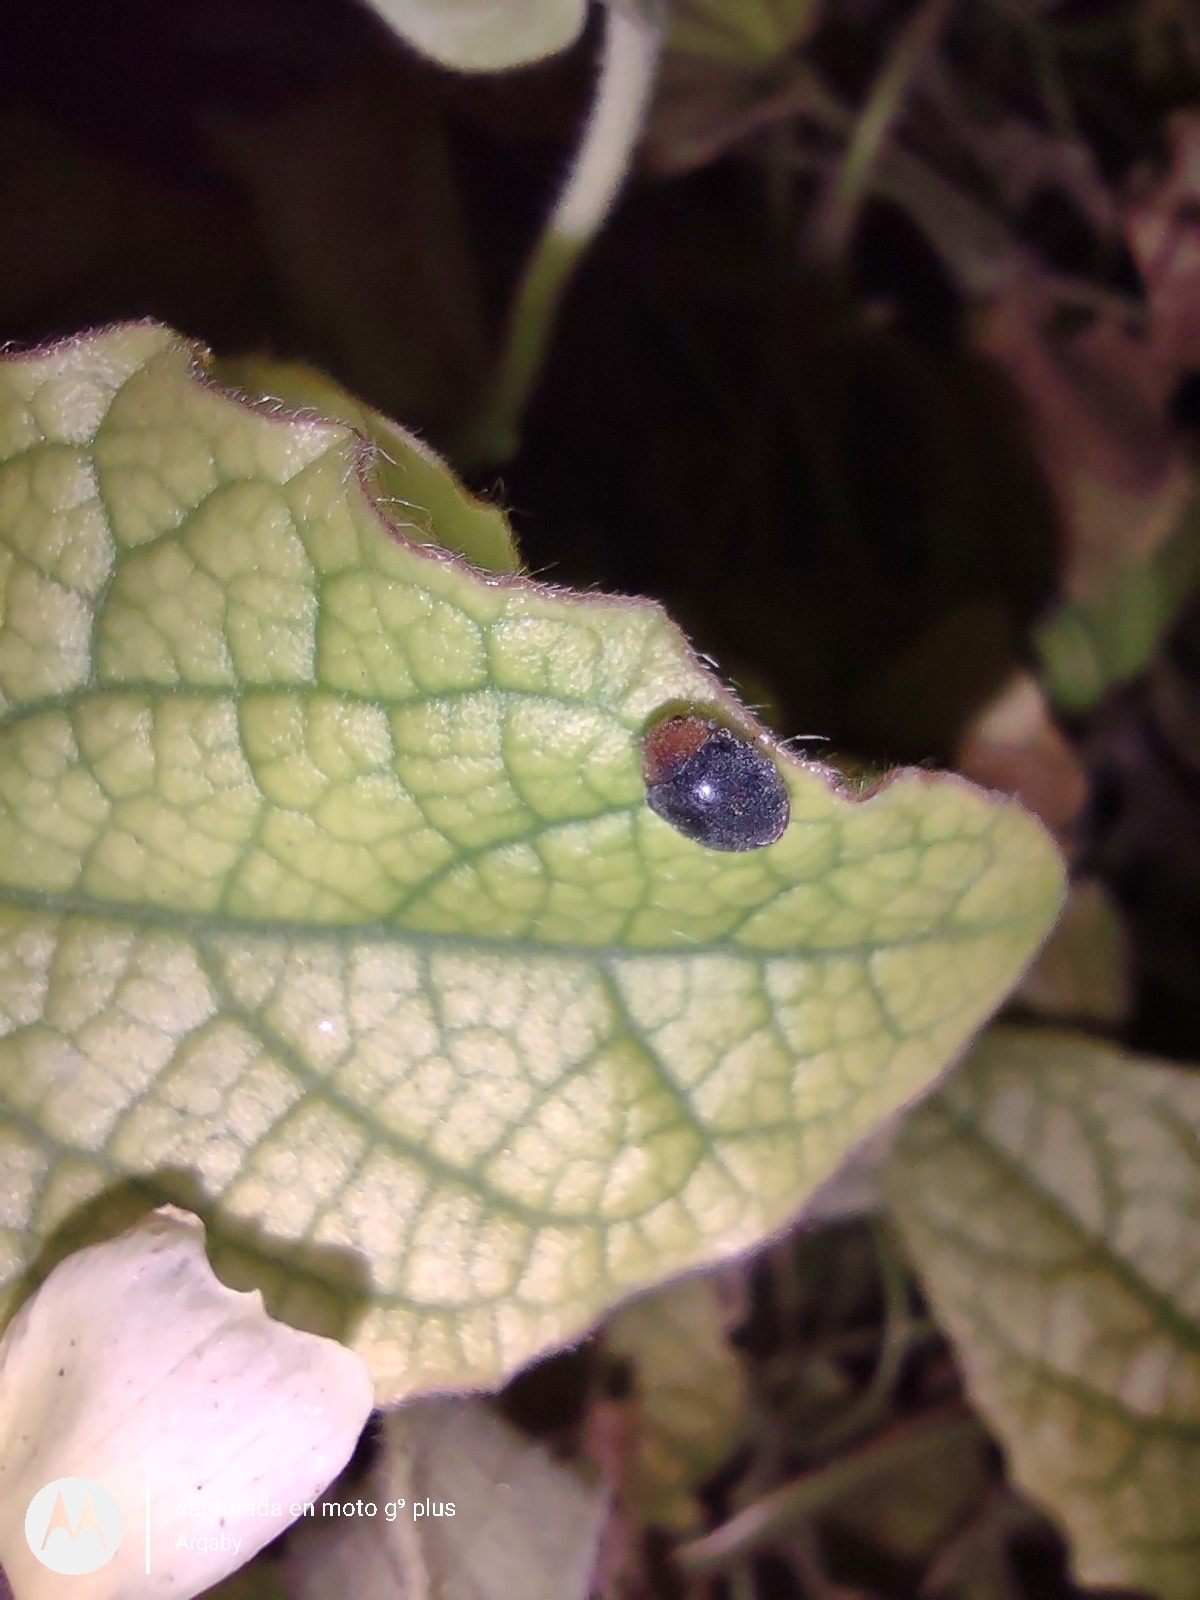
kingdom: Animalia
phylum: Arthropoda
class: Insecta
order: Coleoptera
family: Coccinellidae
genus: Cryptolaemus
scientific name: Cryptolaemus montrouzieri
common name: Mealybug destroyer
